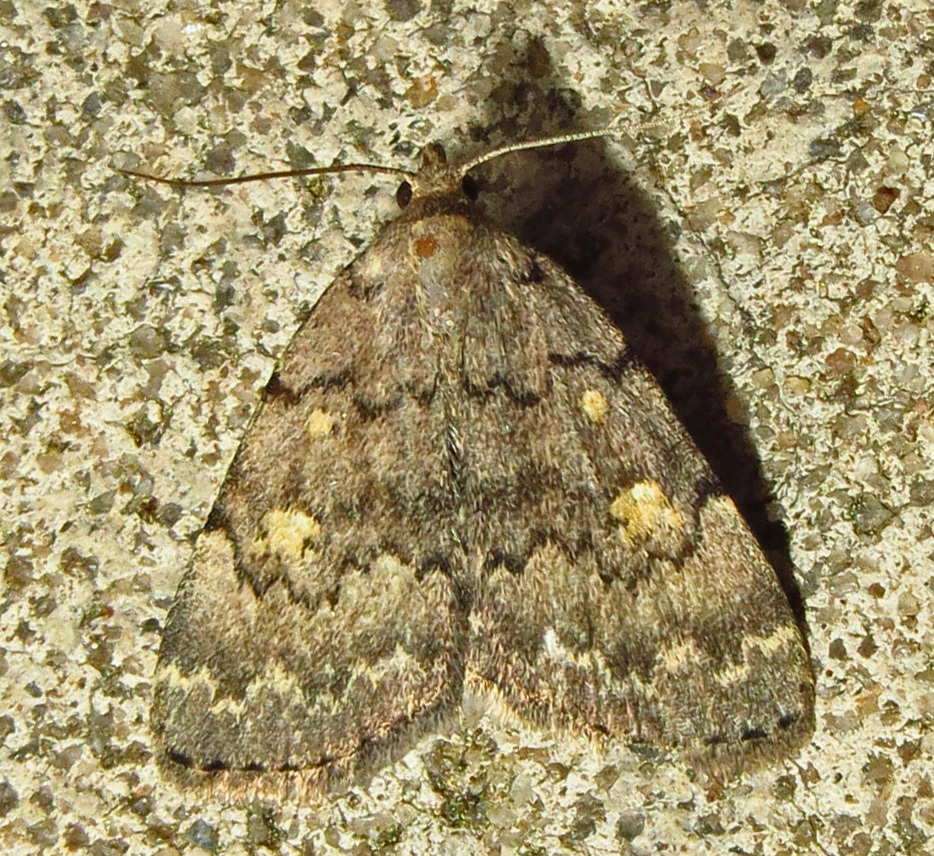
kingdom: Animalia
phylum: Arthropoda
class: Insecta
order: Lepidoptera
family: Erebidae
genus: Idia
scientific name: Idia aemula
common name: Common idia moth
